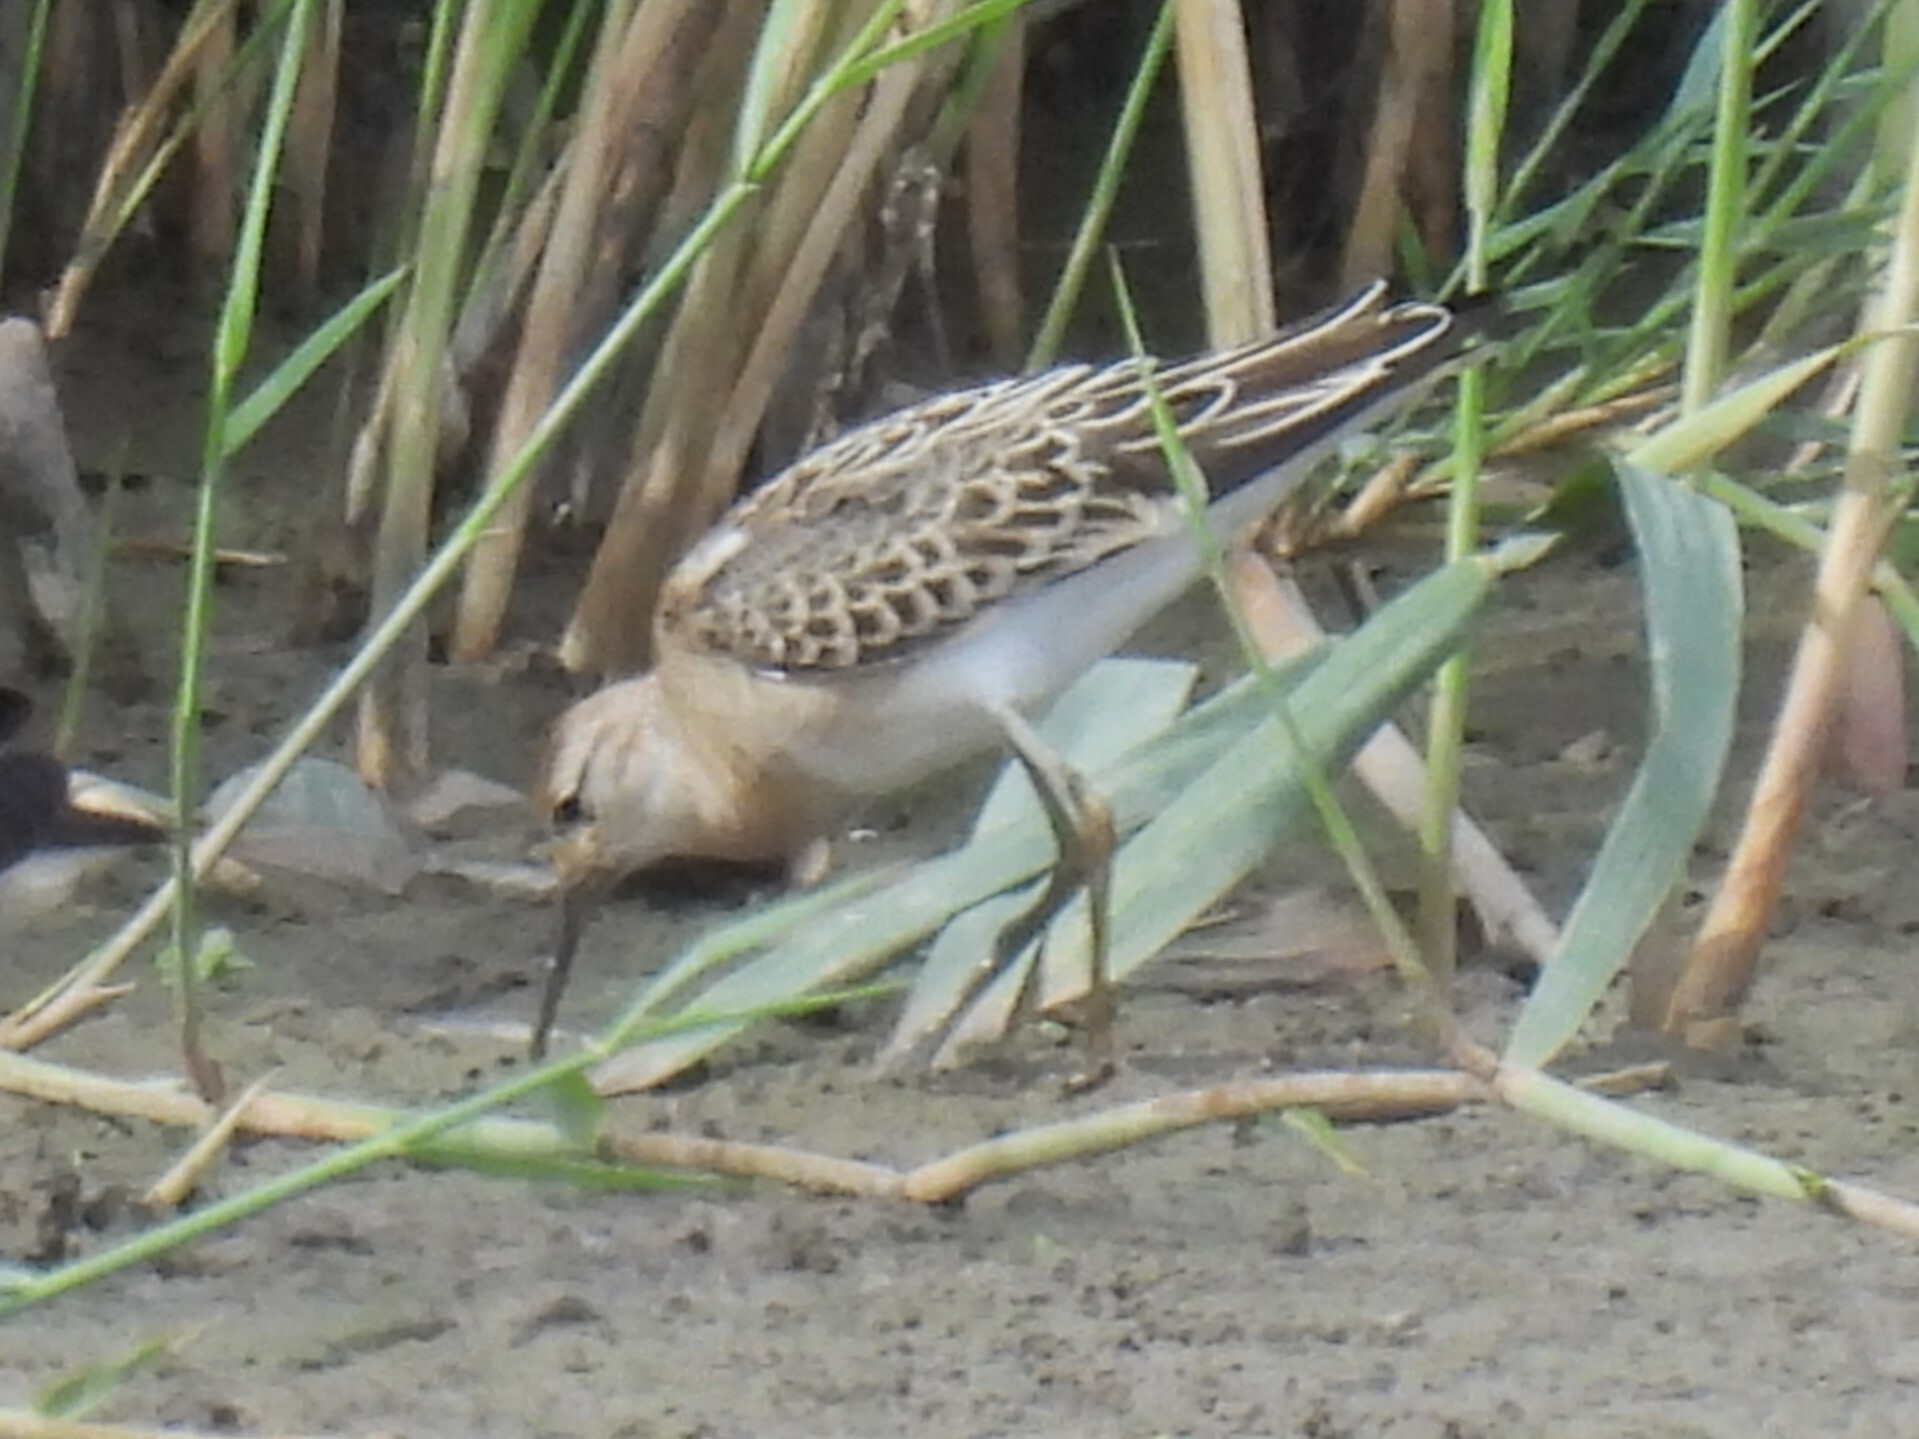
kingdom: Animalia
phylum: Chordata
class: Aves
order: Charadriiformes
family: Scolopacidae
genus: Calidris
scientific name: Calidris pugnax
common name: Ruff
